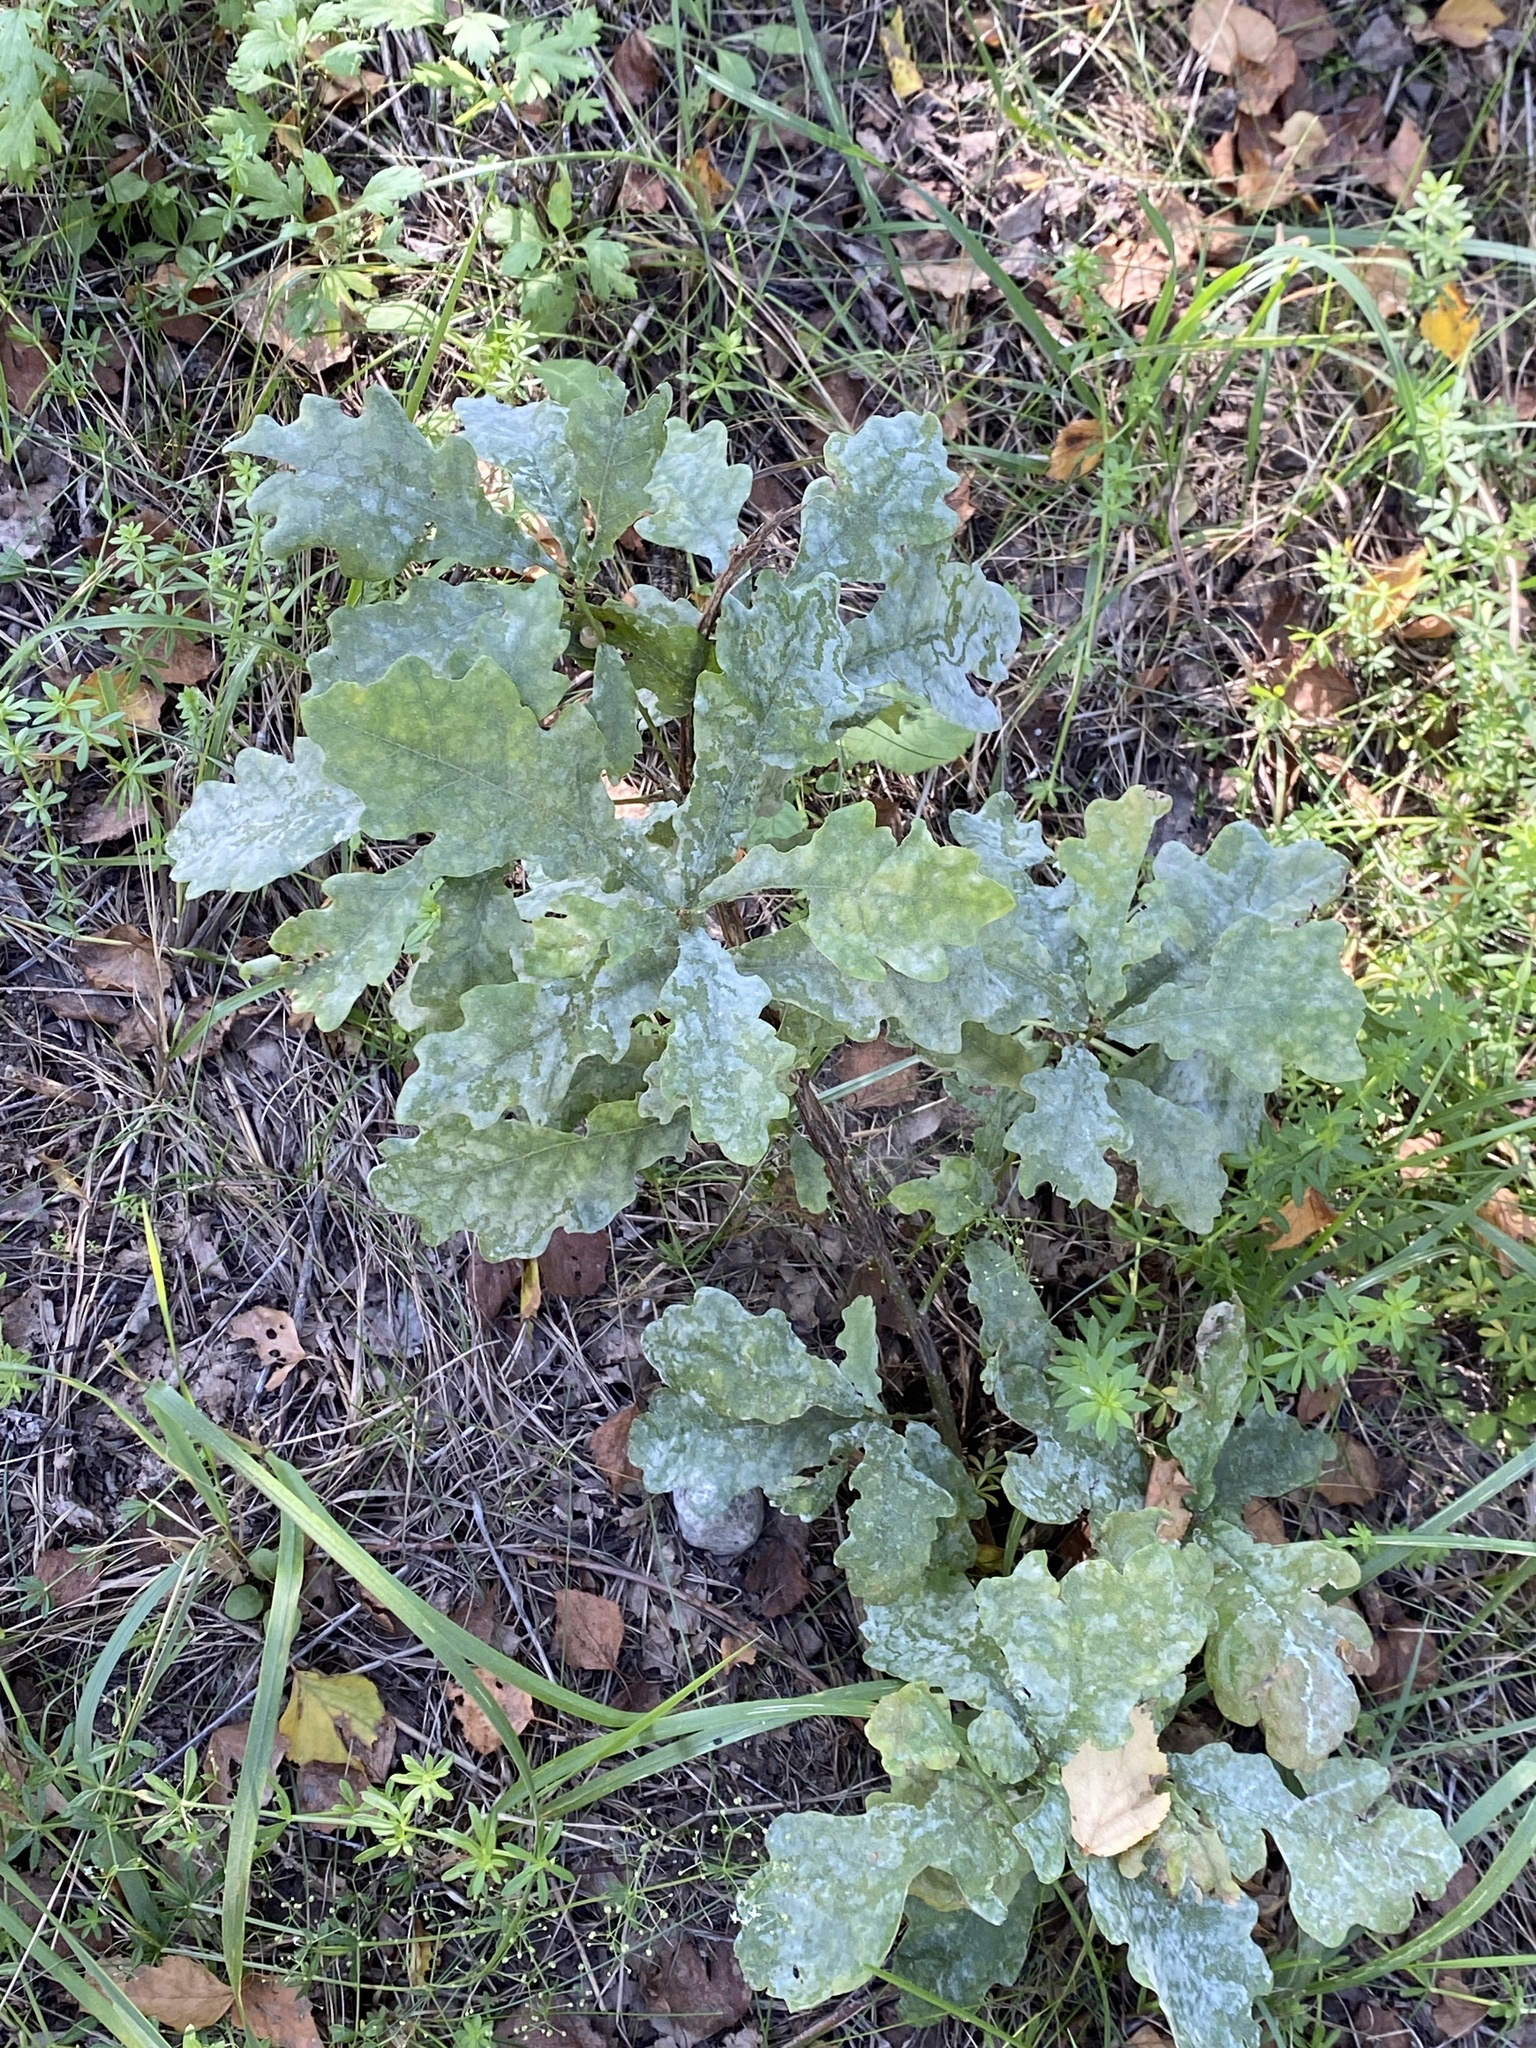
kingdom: Plantae
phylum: Tracheophyta
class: Magnoliopsida
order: Fagales
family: Fagaceae
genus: Quercus
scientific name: Quercus robur
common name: Pedunculate oak
